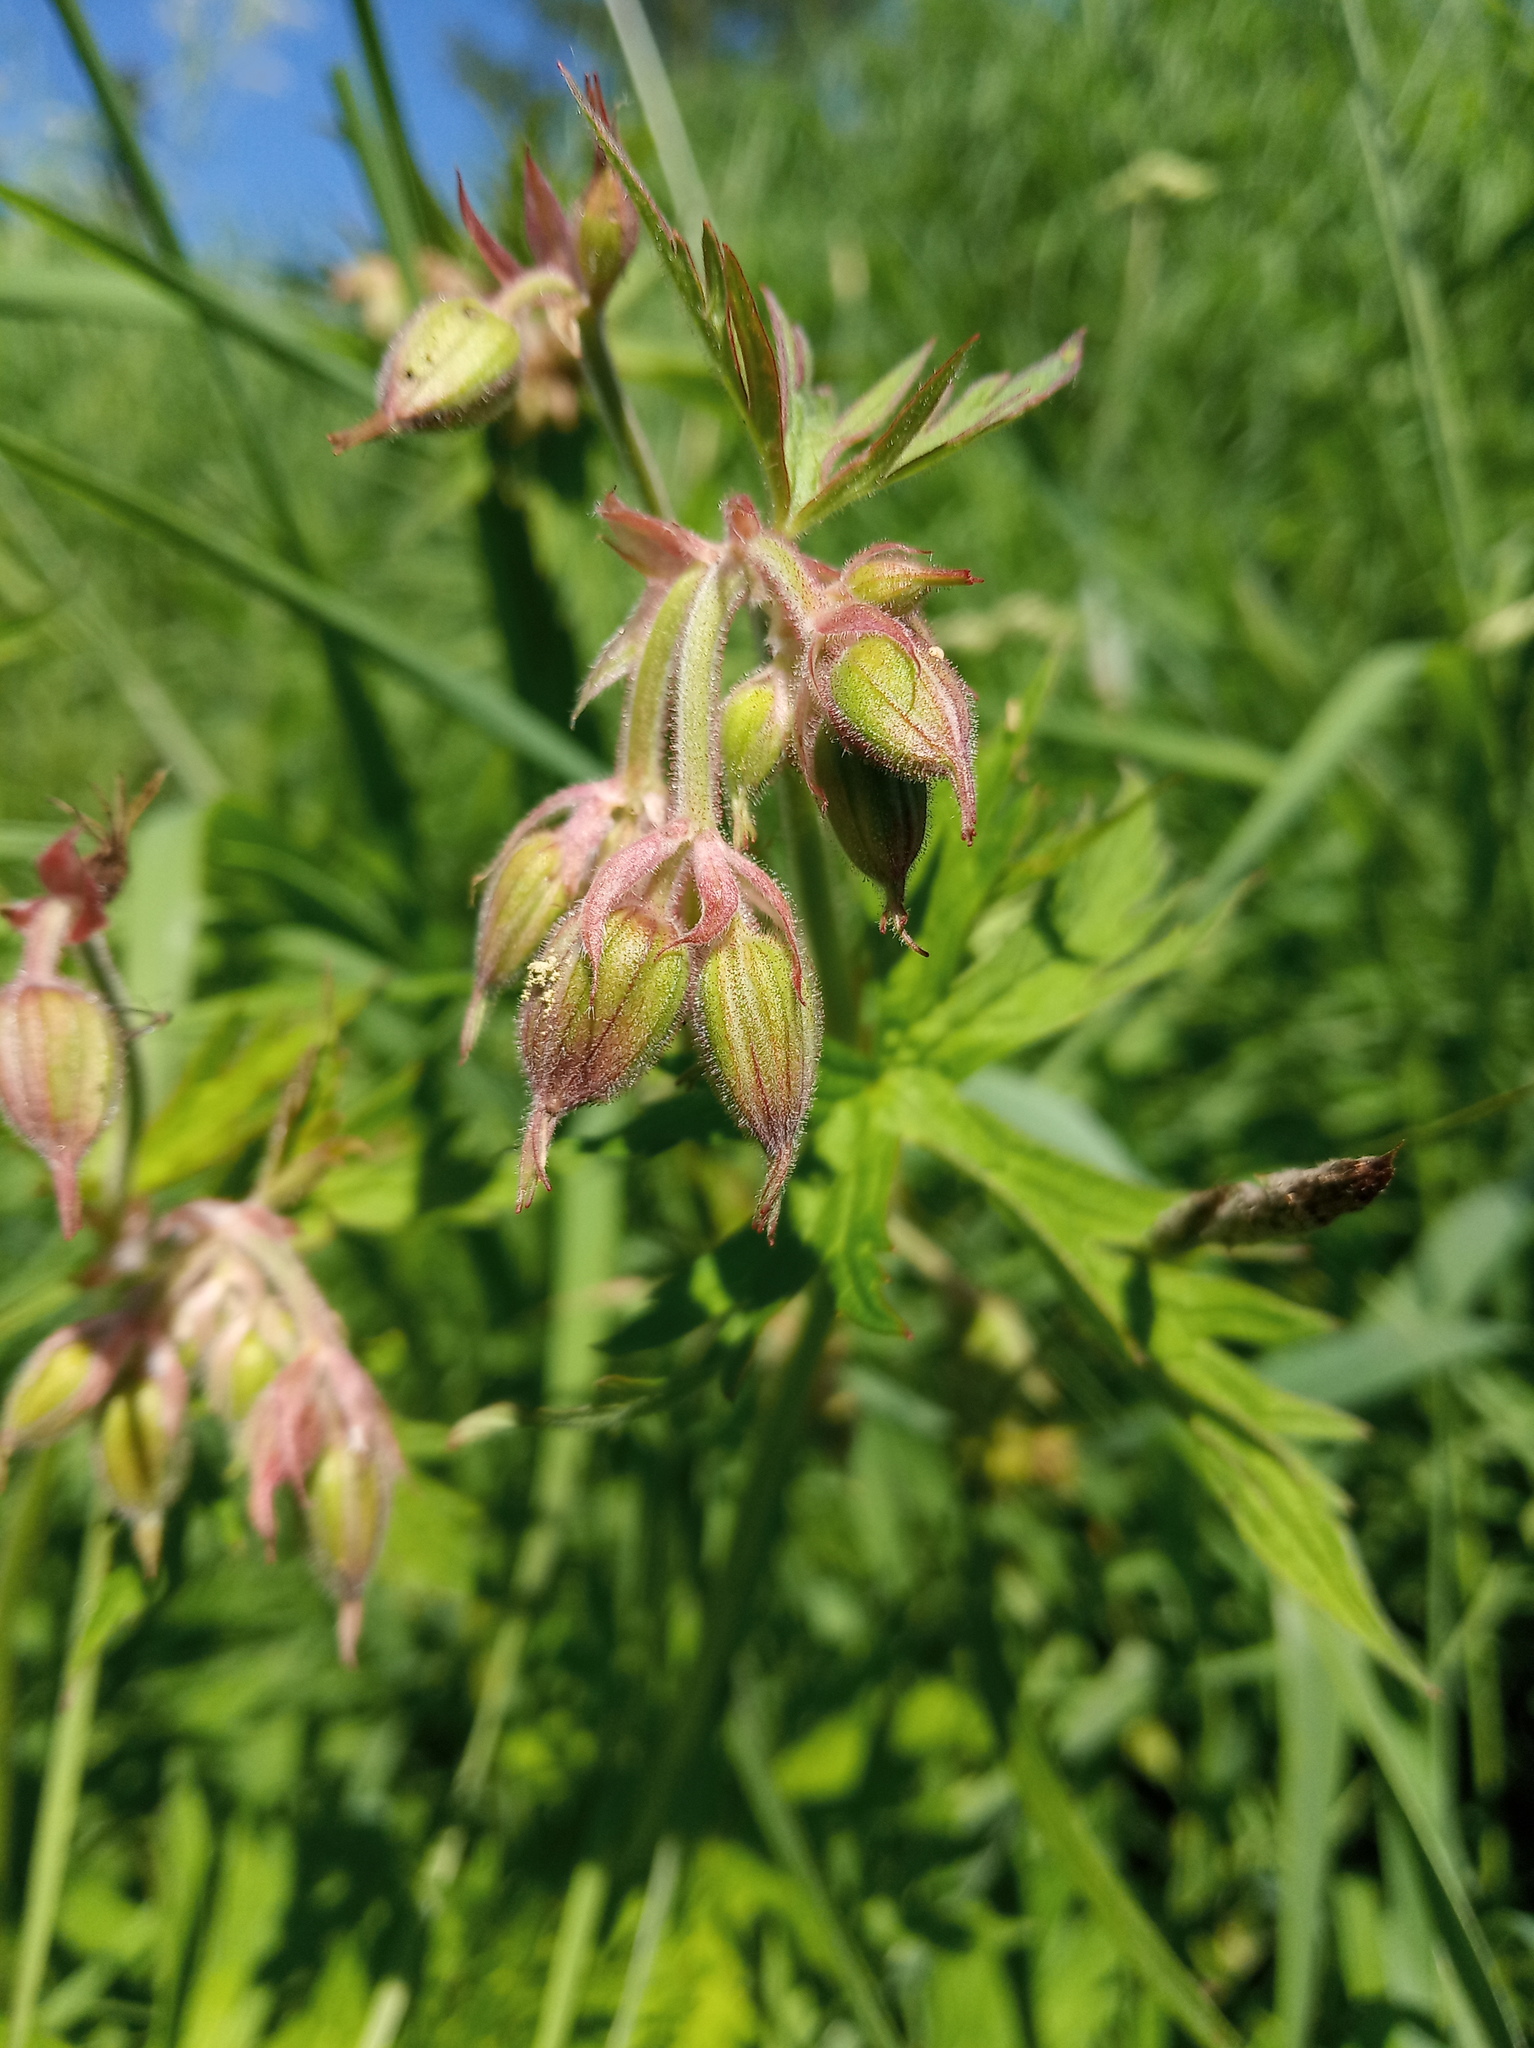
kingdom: Plantae
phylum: Tracheophyta
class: Magnoliopsida
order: Geraniales
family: Geraniaceae
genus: Geranium
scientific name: Geranium pratense
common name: Meadow crane's-bill
